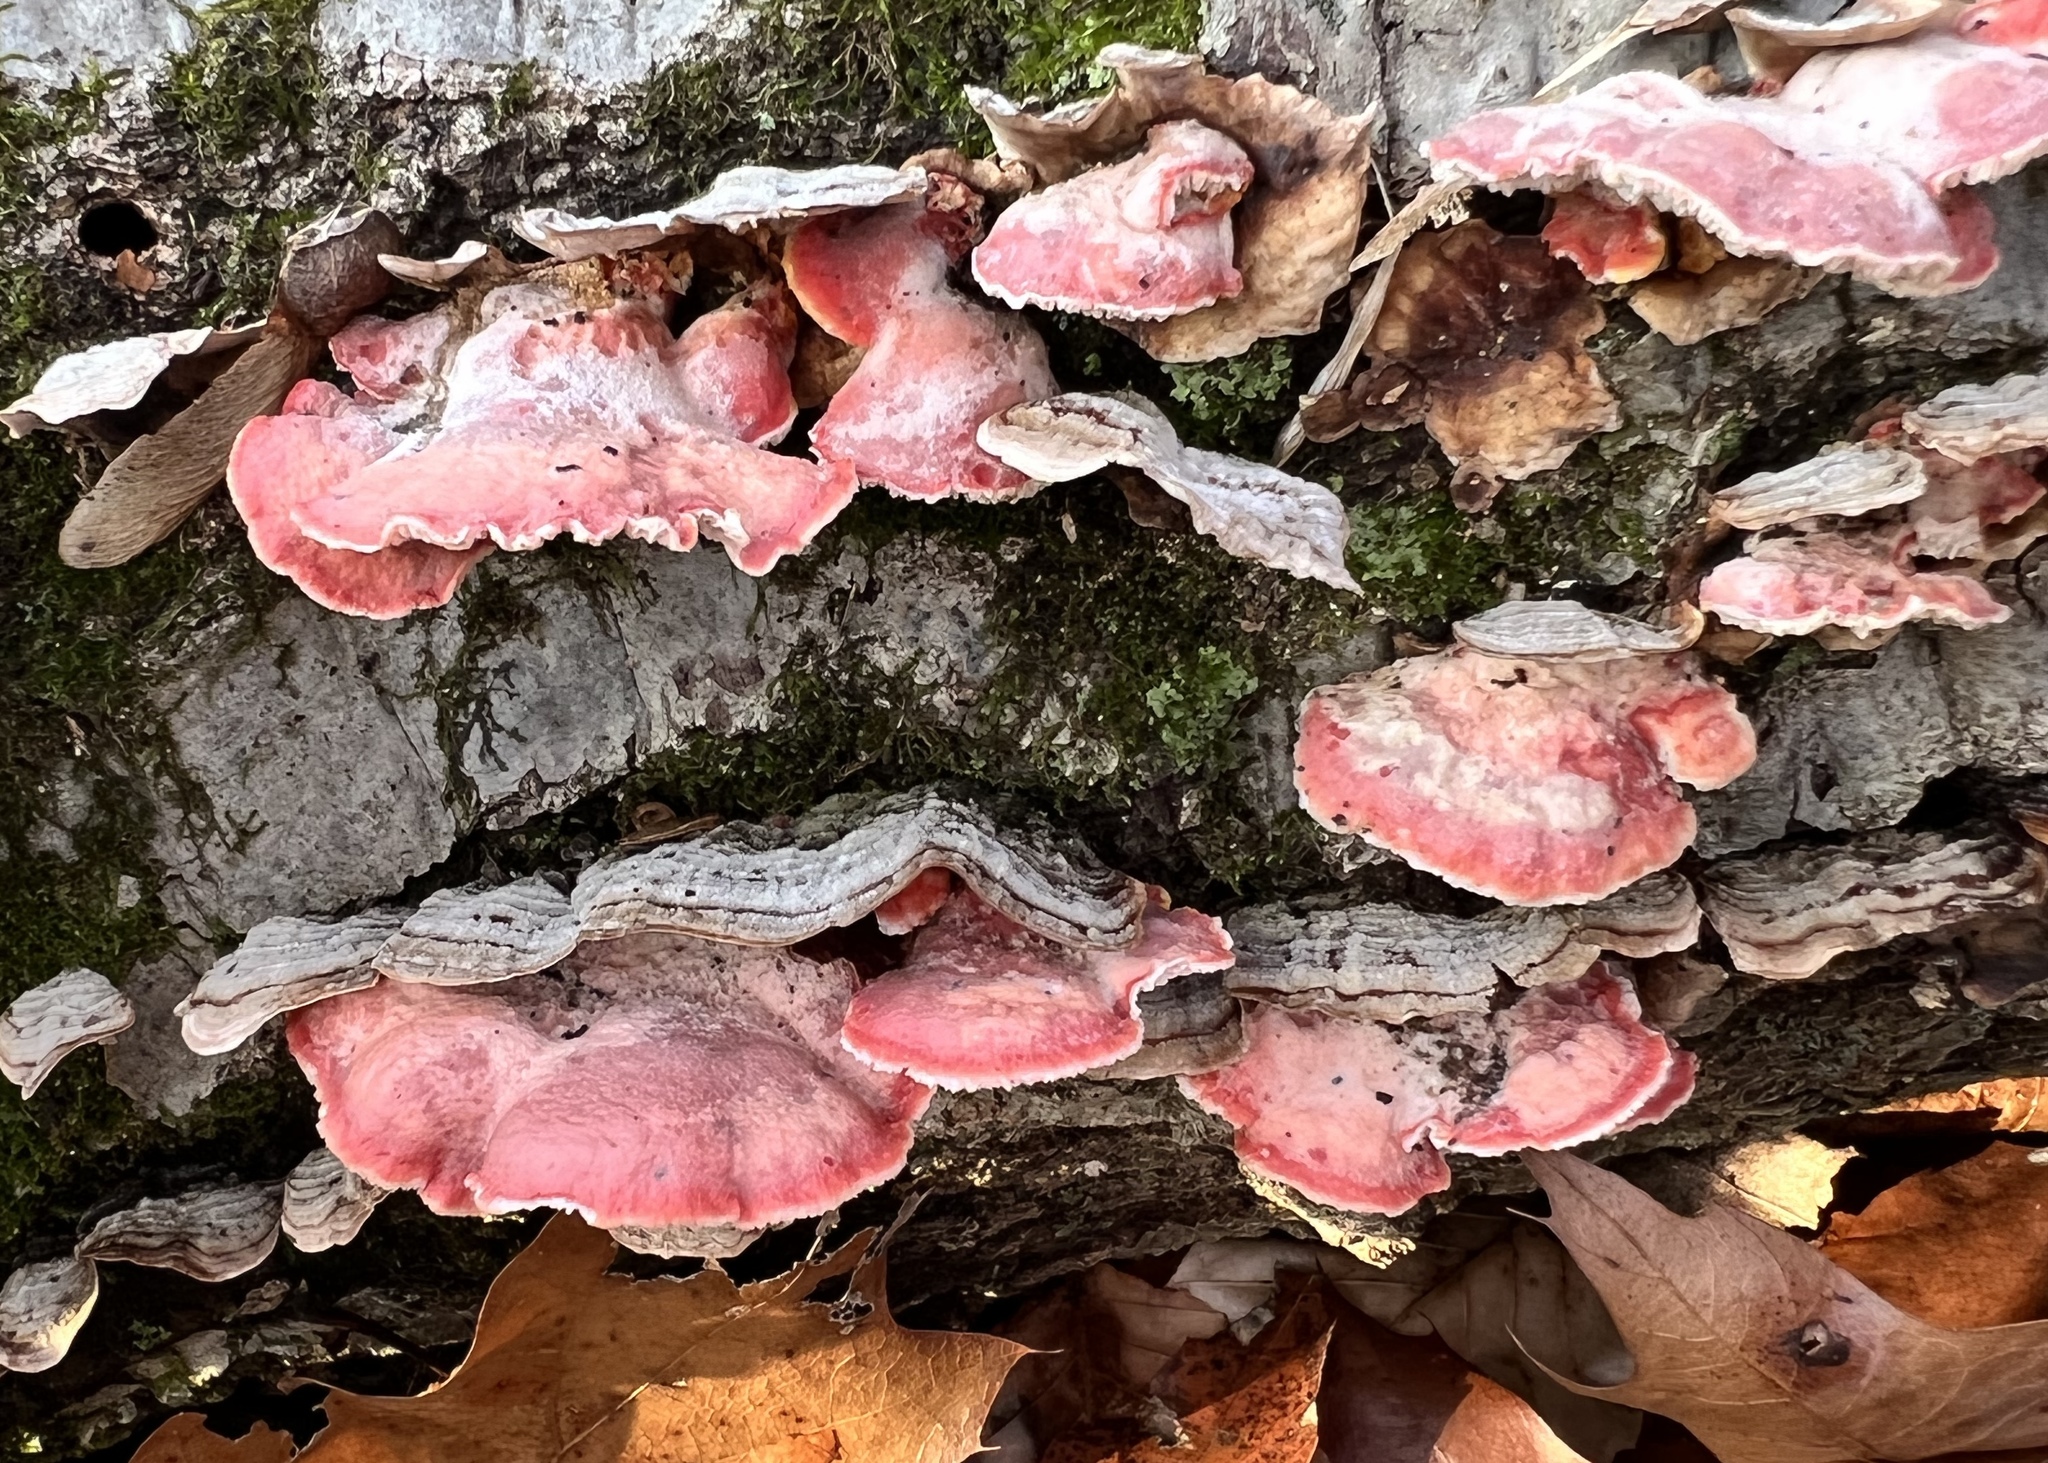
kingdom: Fungi
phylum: Basidiomycota
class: Agaricomycetes
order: Polyporales
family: Irpicaceae
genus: Byssomerulius
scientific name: Byssomerulius incarnatus
